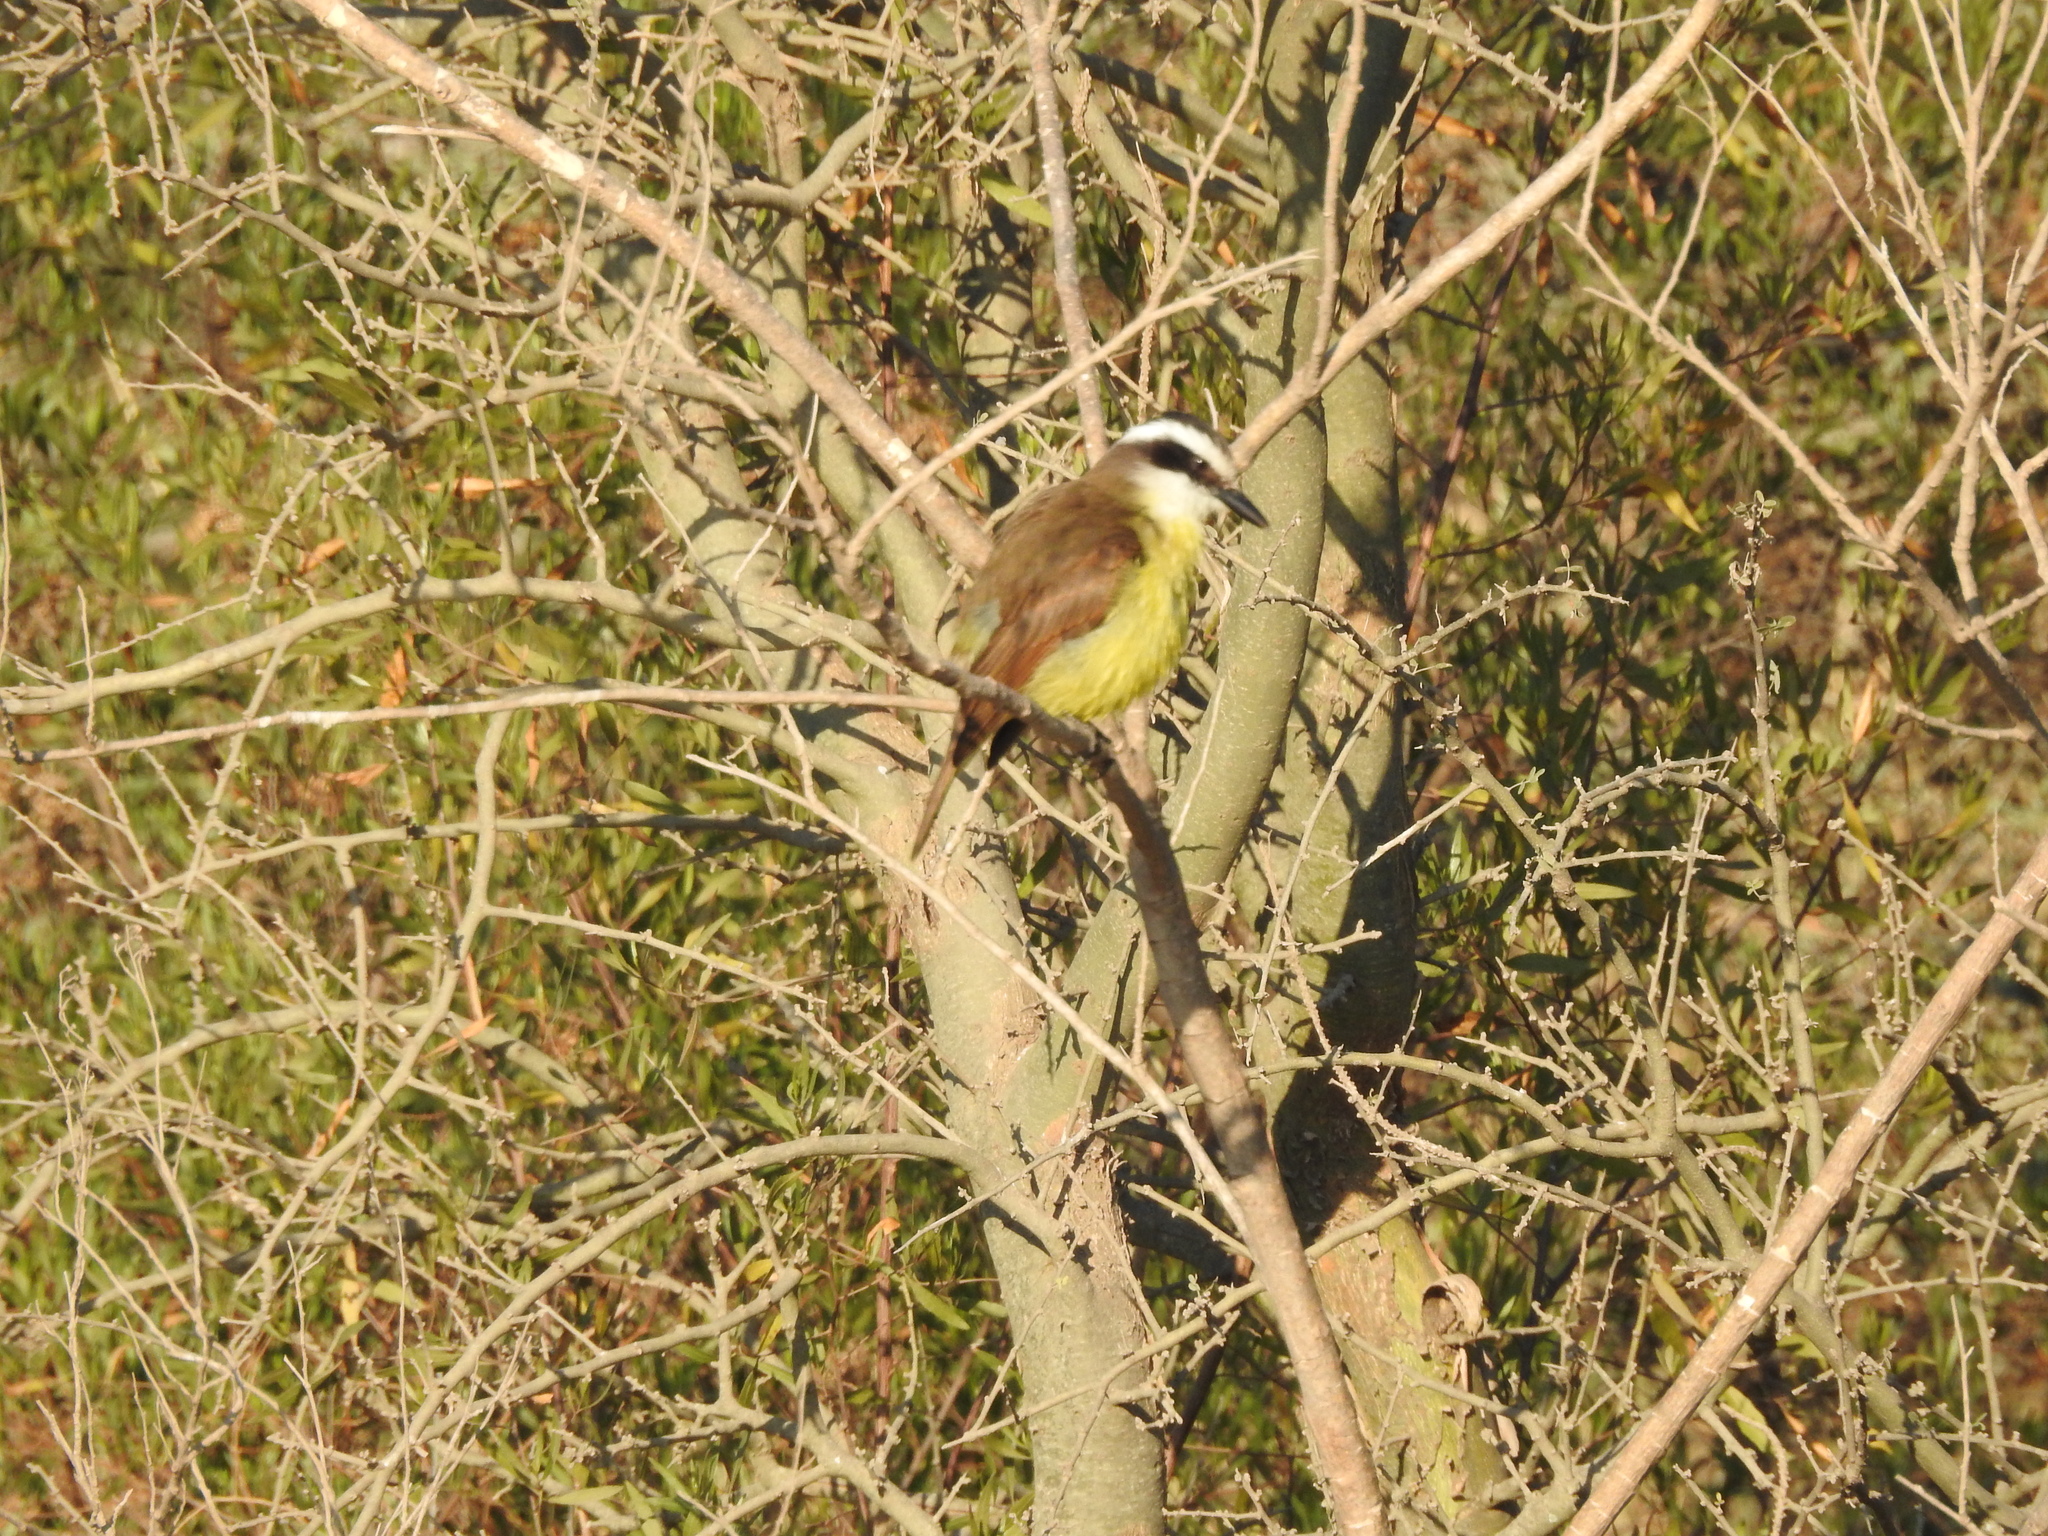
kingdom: Animalia
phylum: Chordata
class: Aves
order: Passeriformes
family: Tyrannidae
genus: Pitangus
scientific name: Pitangus sulphuratus
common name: Great kiskadee
